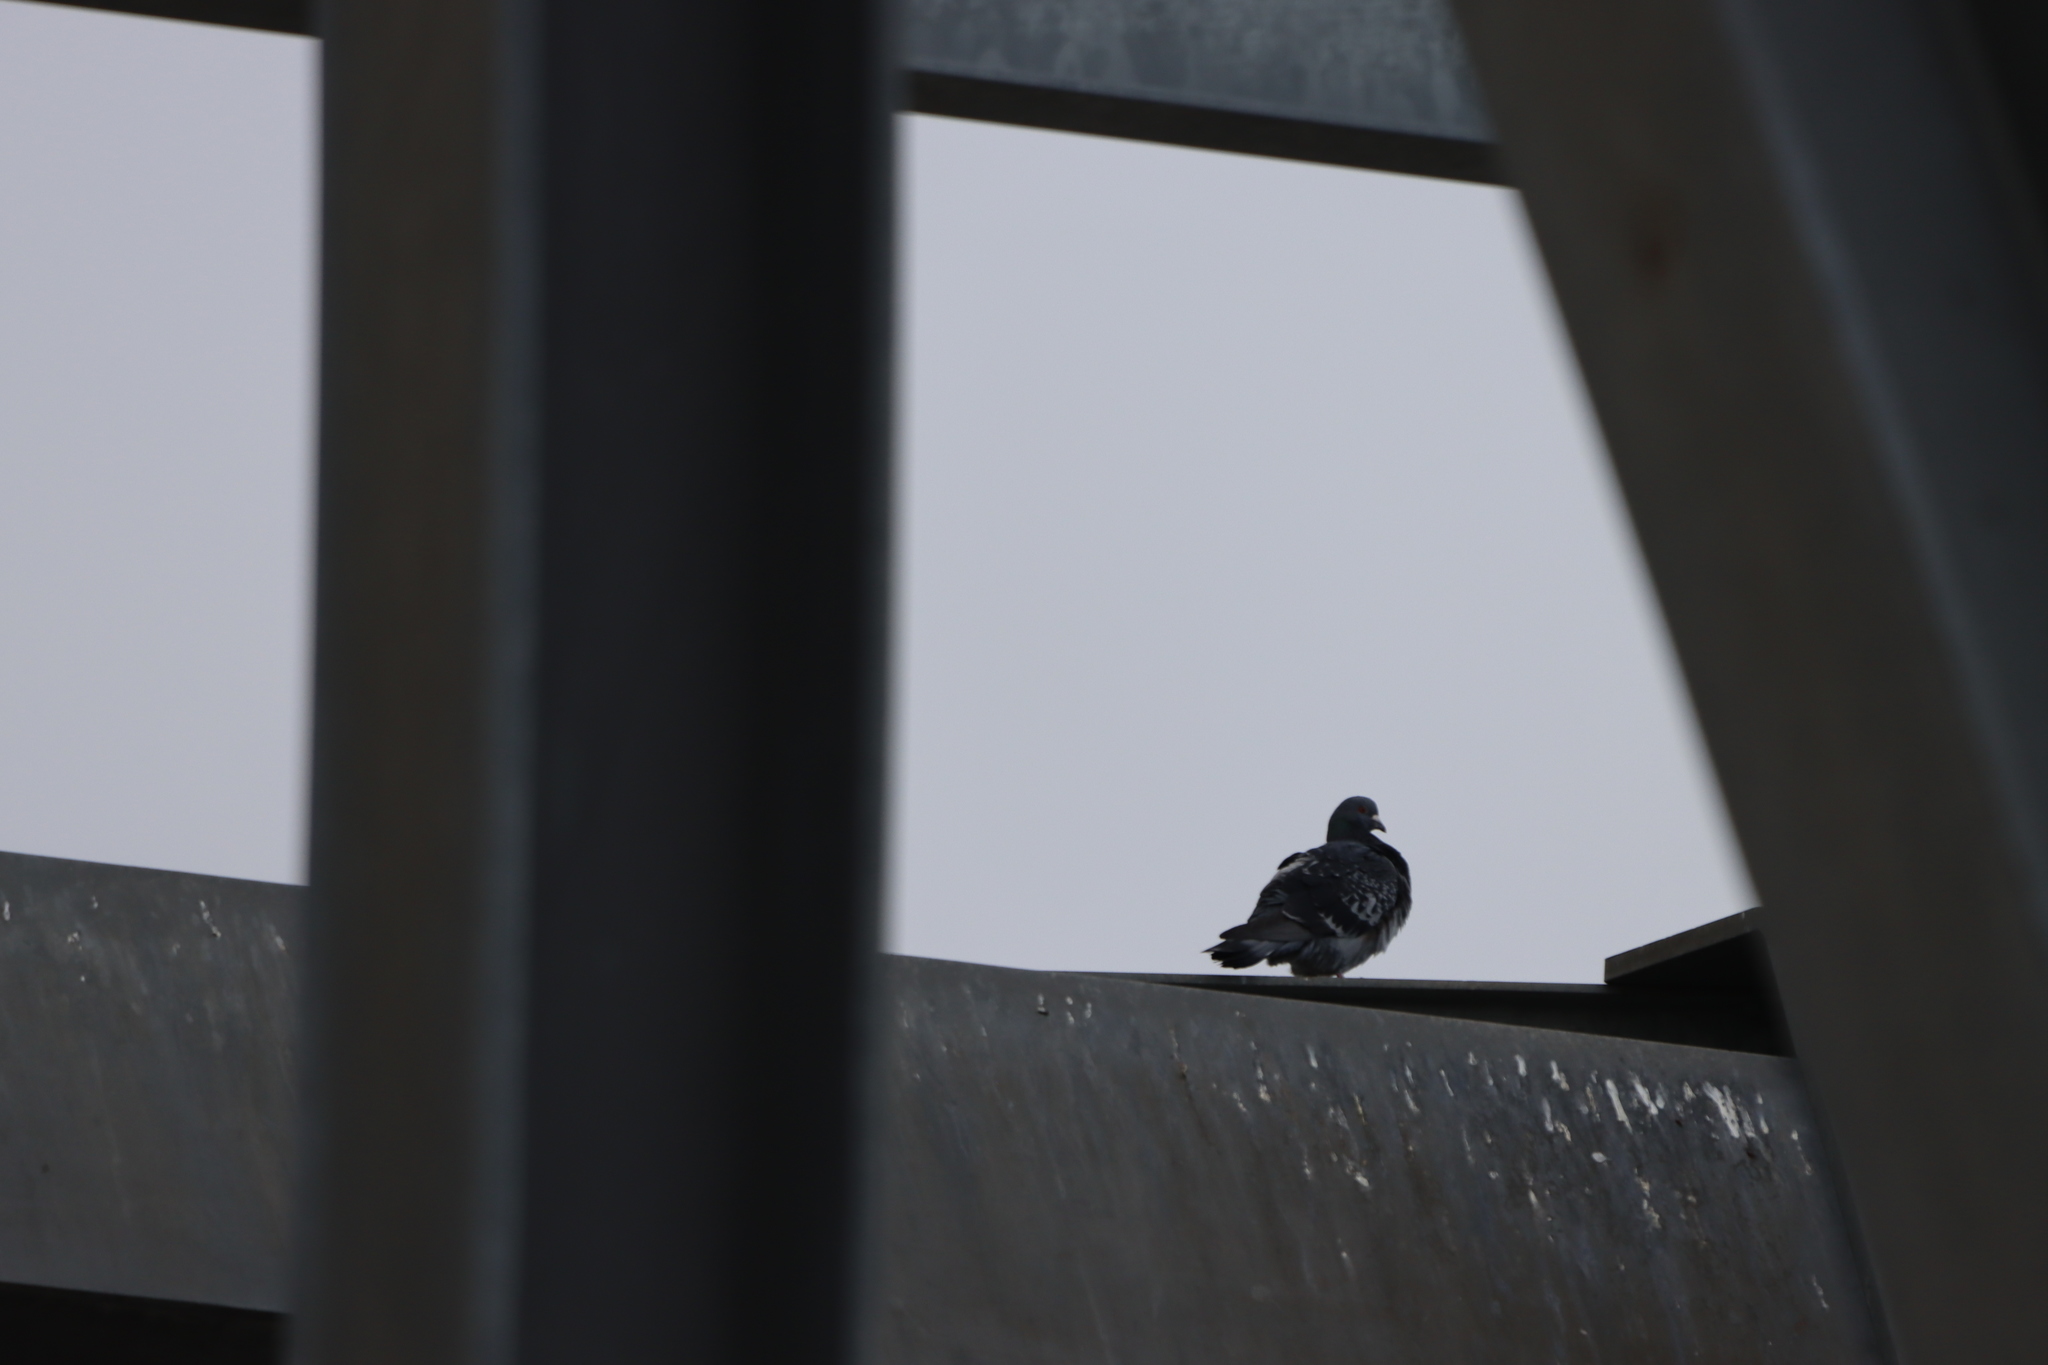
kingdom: Animalia
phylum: Chordata
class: Aves
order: Columbiformes
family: Columbidae
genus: Columba
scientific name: Columba livia
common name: Rock pigeon
